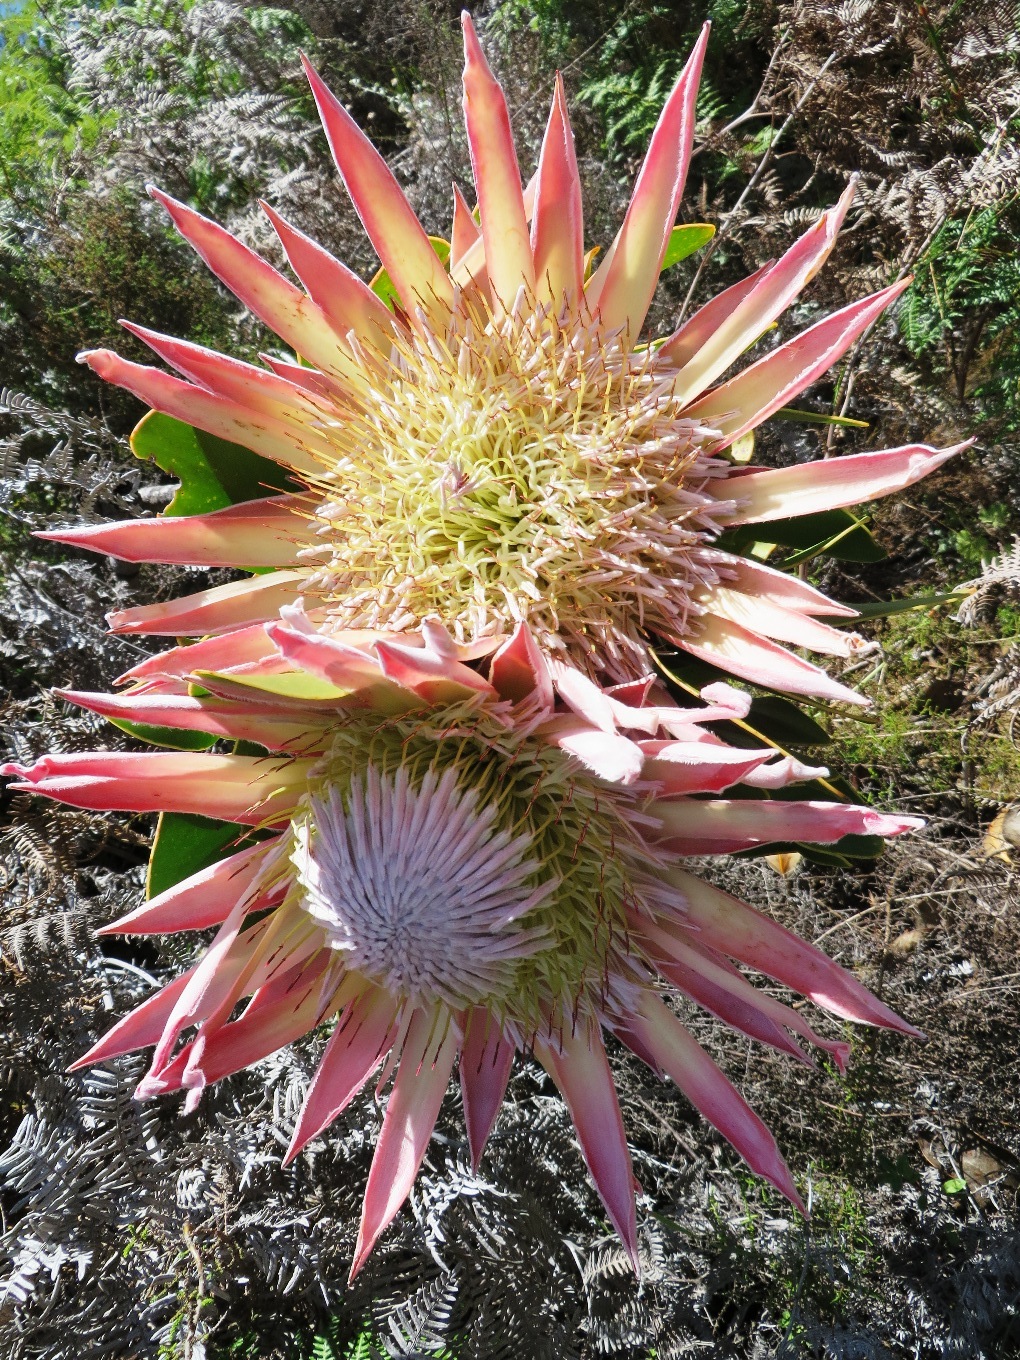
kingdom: Plantae
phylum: Tracheophyta
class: Magnoliopsida
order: Proteales
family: Proteaceae
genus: Protea
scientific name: Protea cynaroides
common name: King protea
